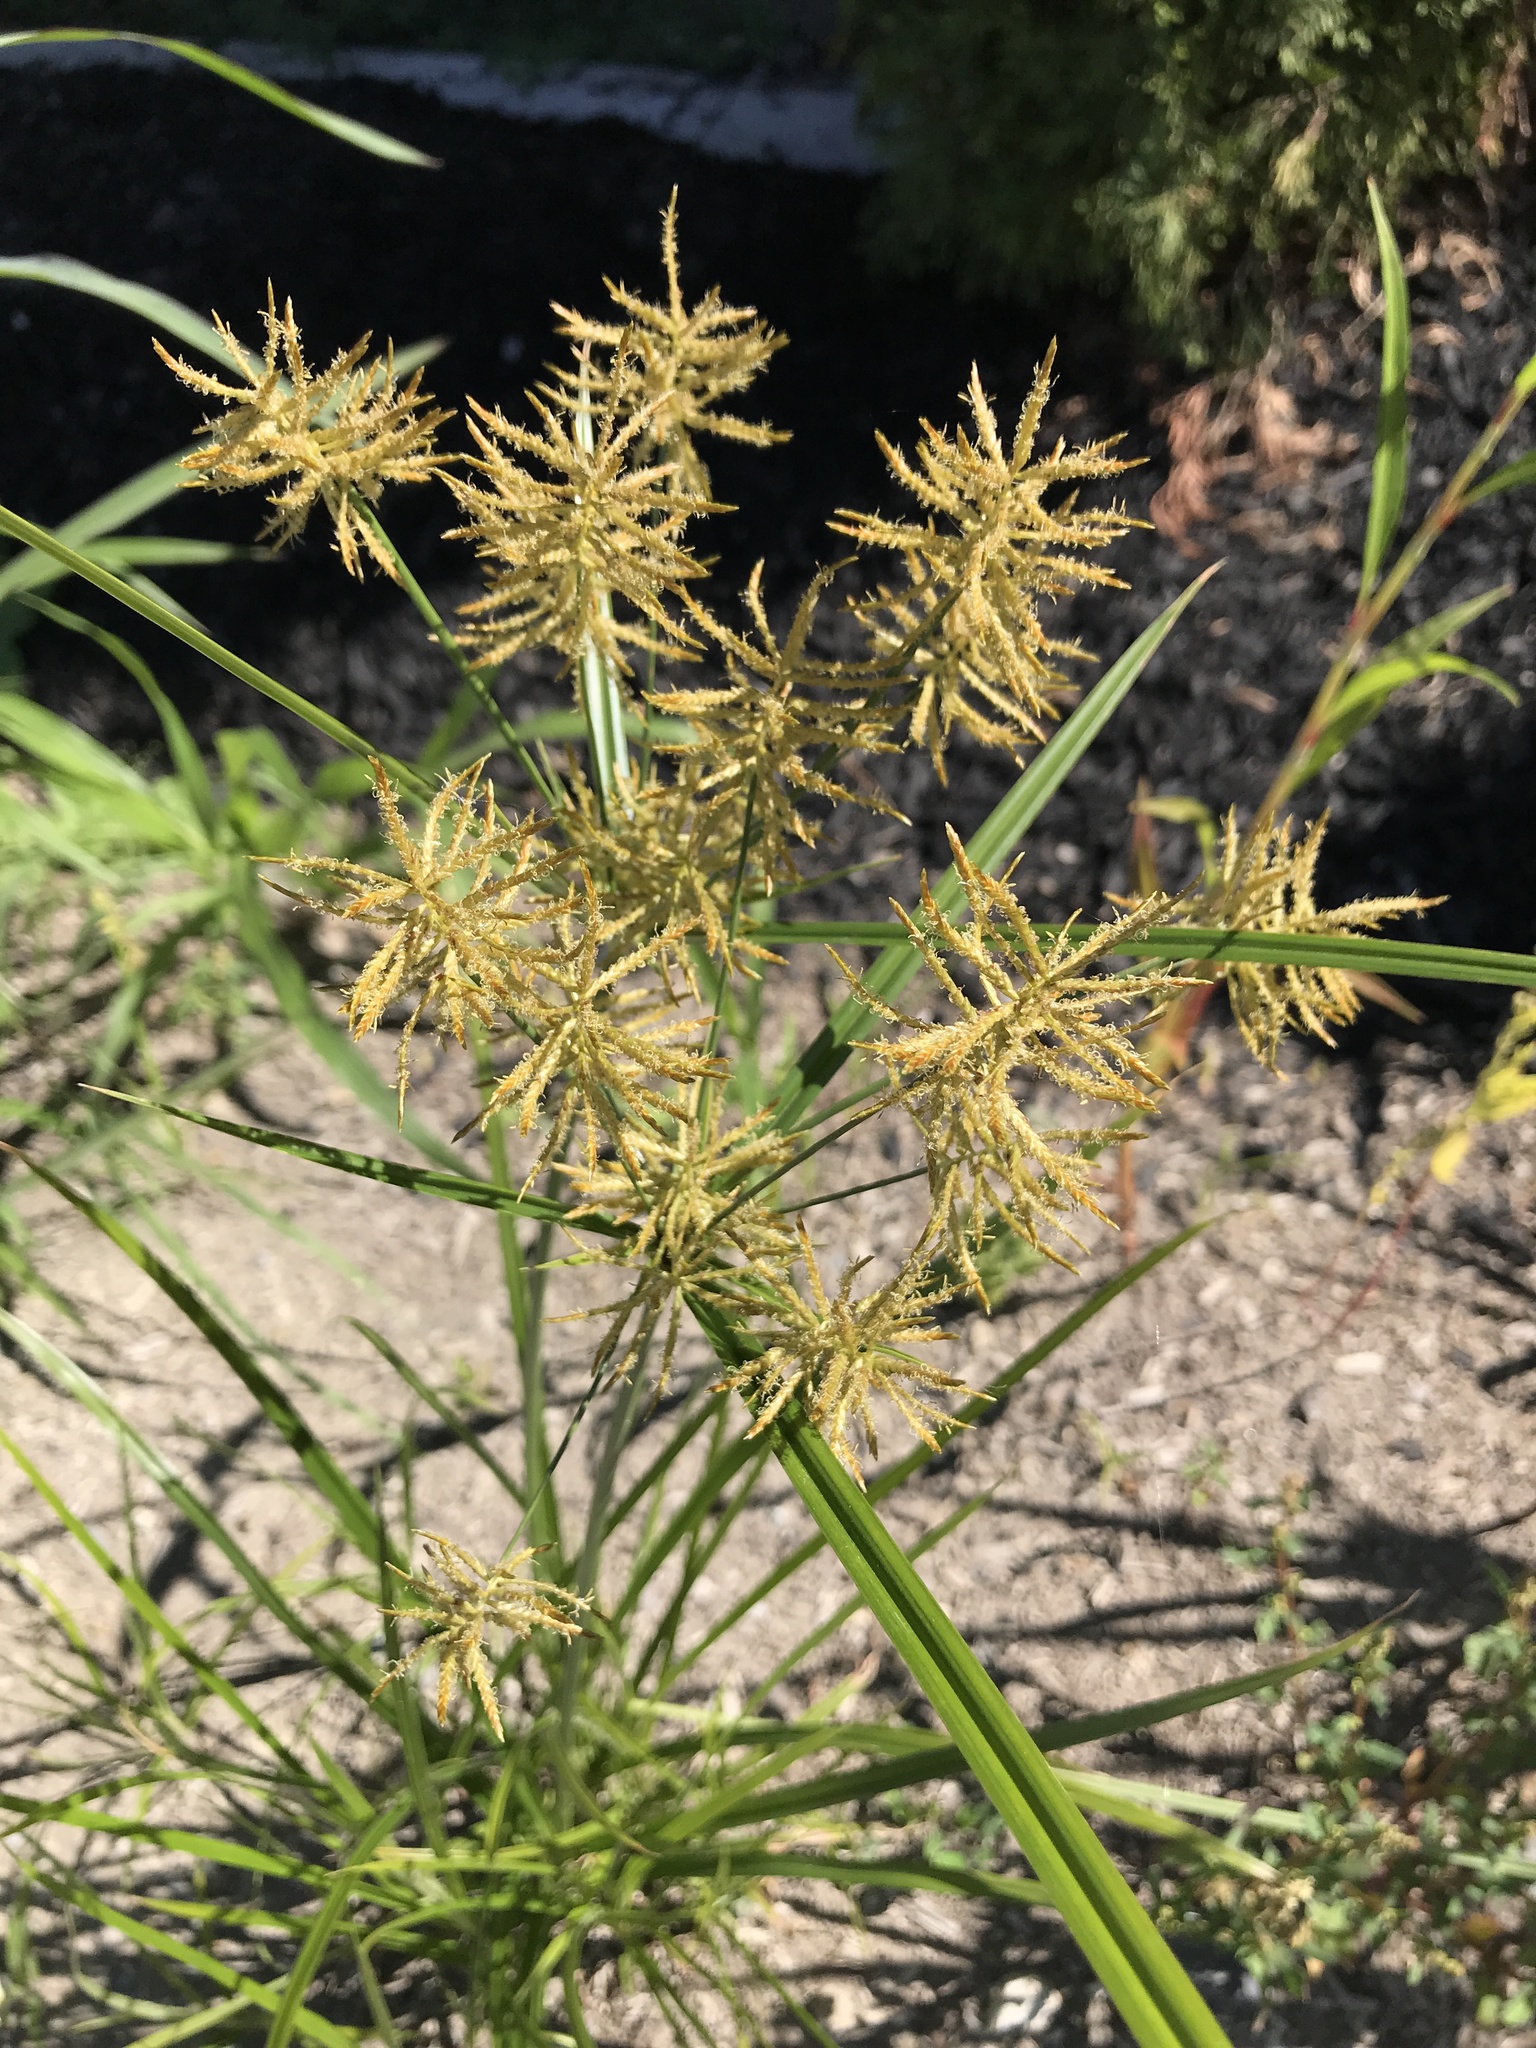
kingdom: Plantae
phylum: Tracheophyta
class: Liliopsida
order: Poales
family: Cyperaceae
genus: Cyperus
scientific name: Cyperus esculentus
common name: Yellow nutsedge
